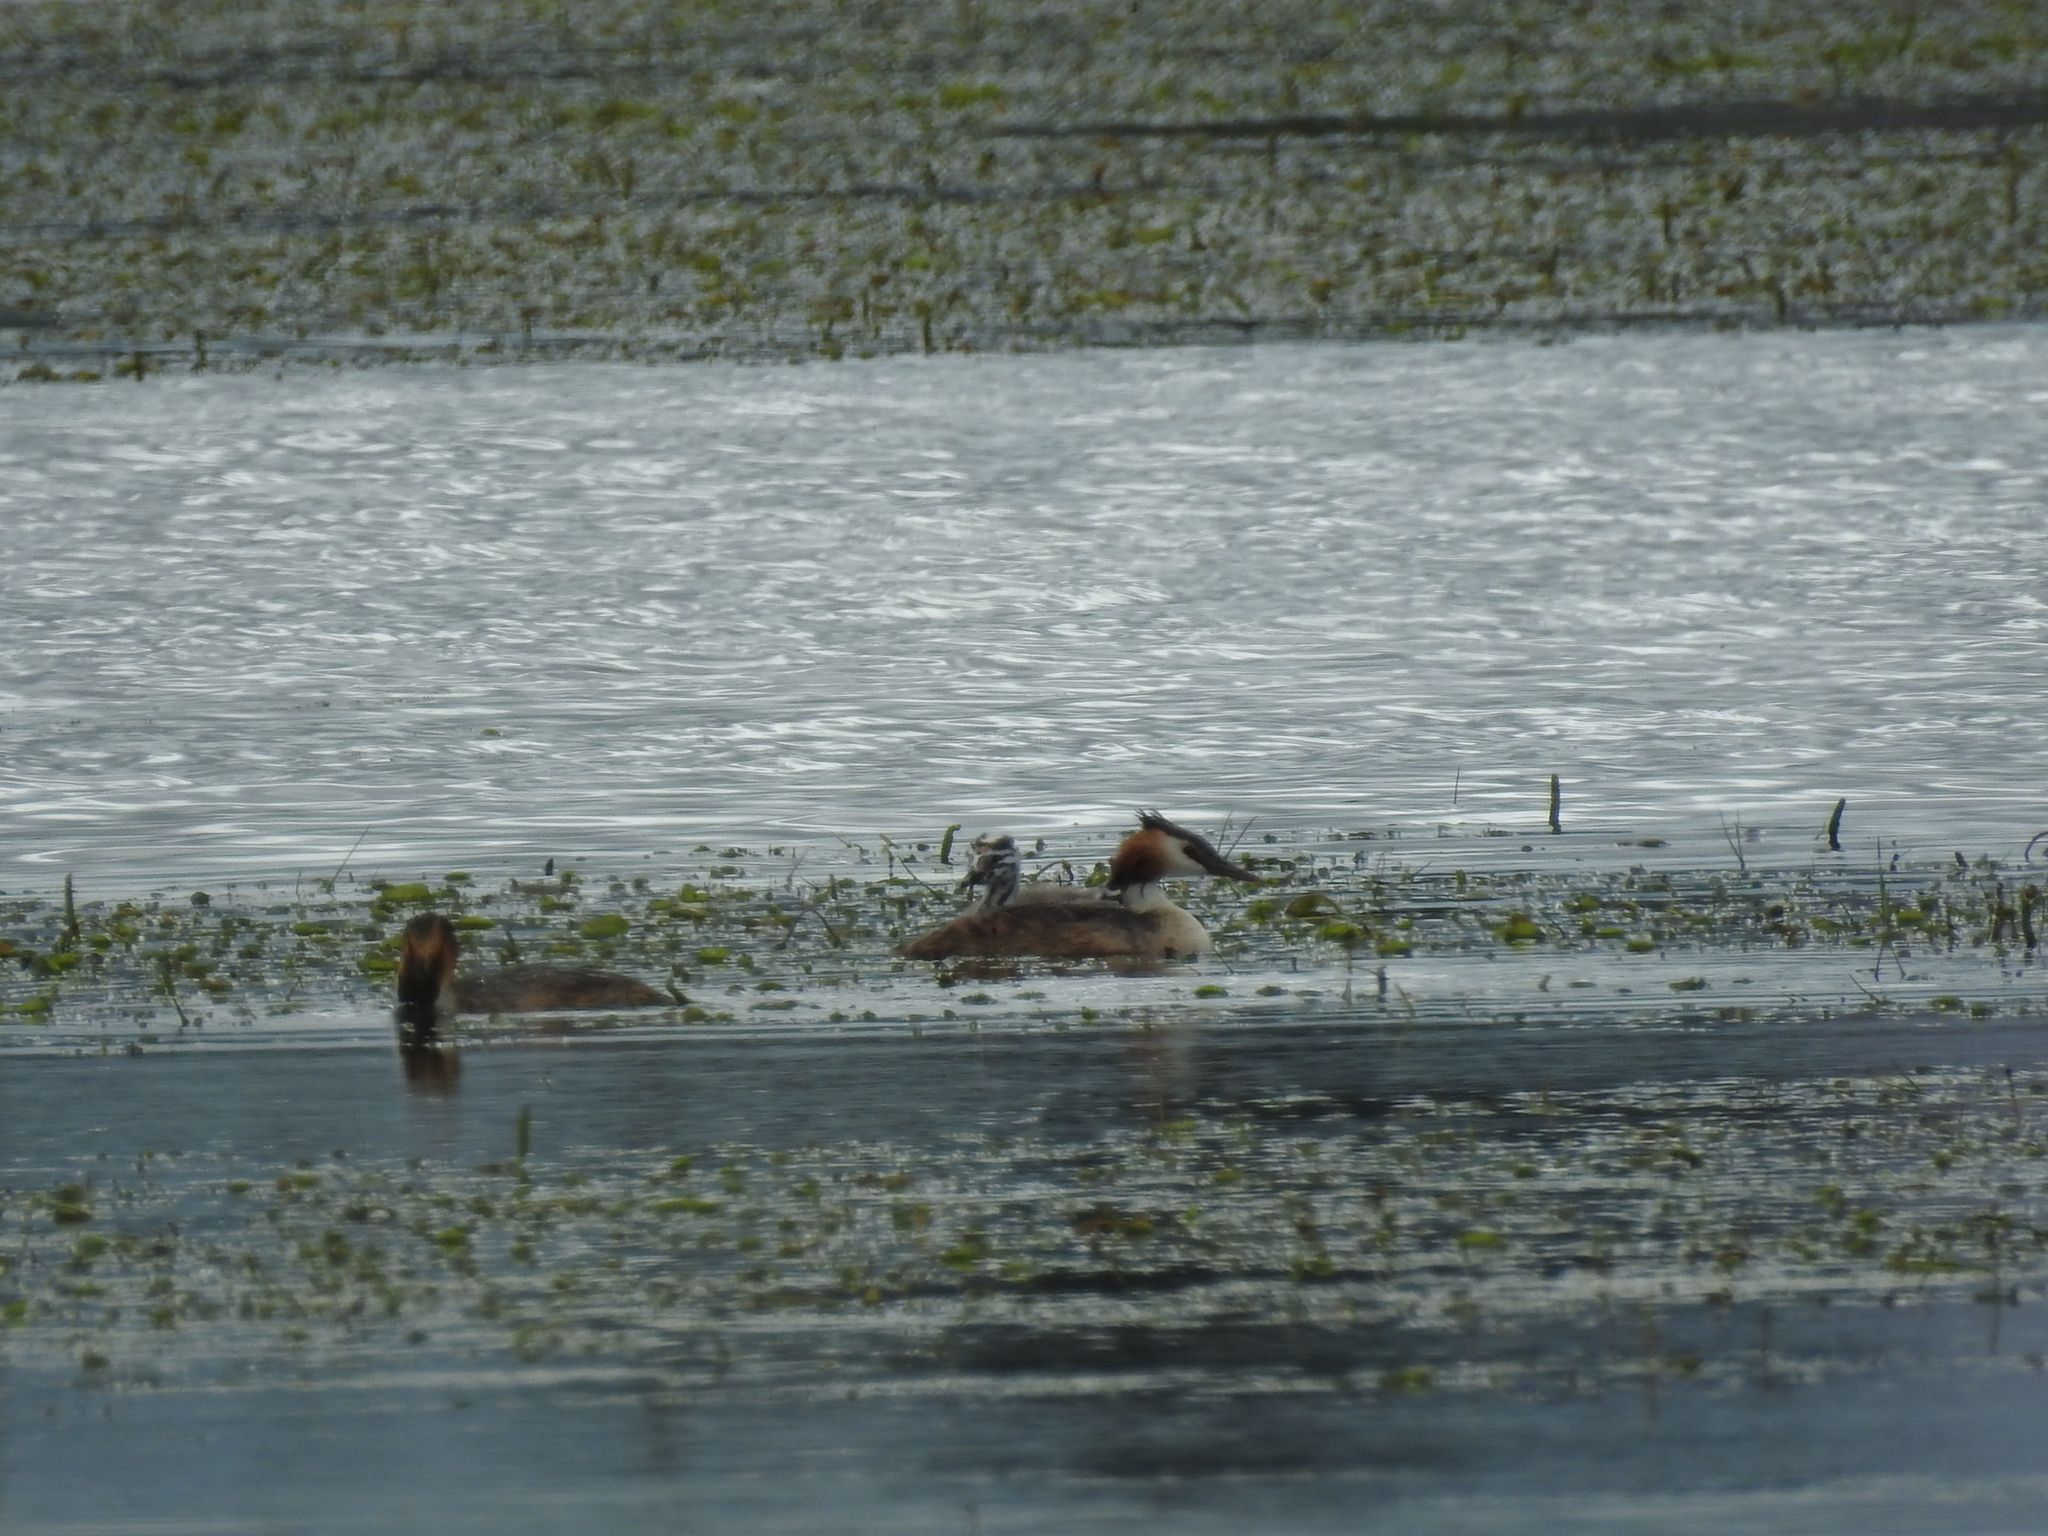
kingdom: Animalia
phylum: Chordata
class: Aves
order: Podicipediformes
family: Podicipedidae
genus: Podiceps
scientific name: Podiceps cristatus
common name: Great crested grebe
